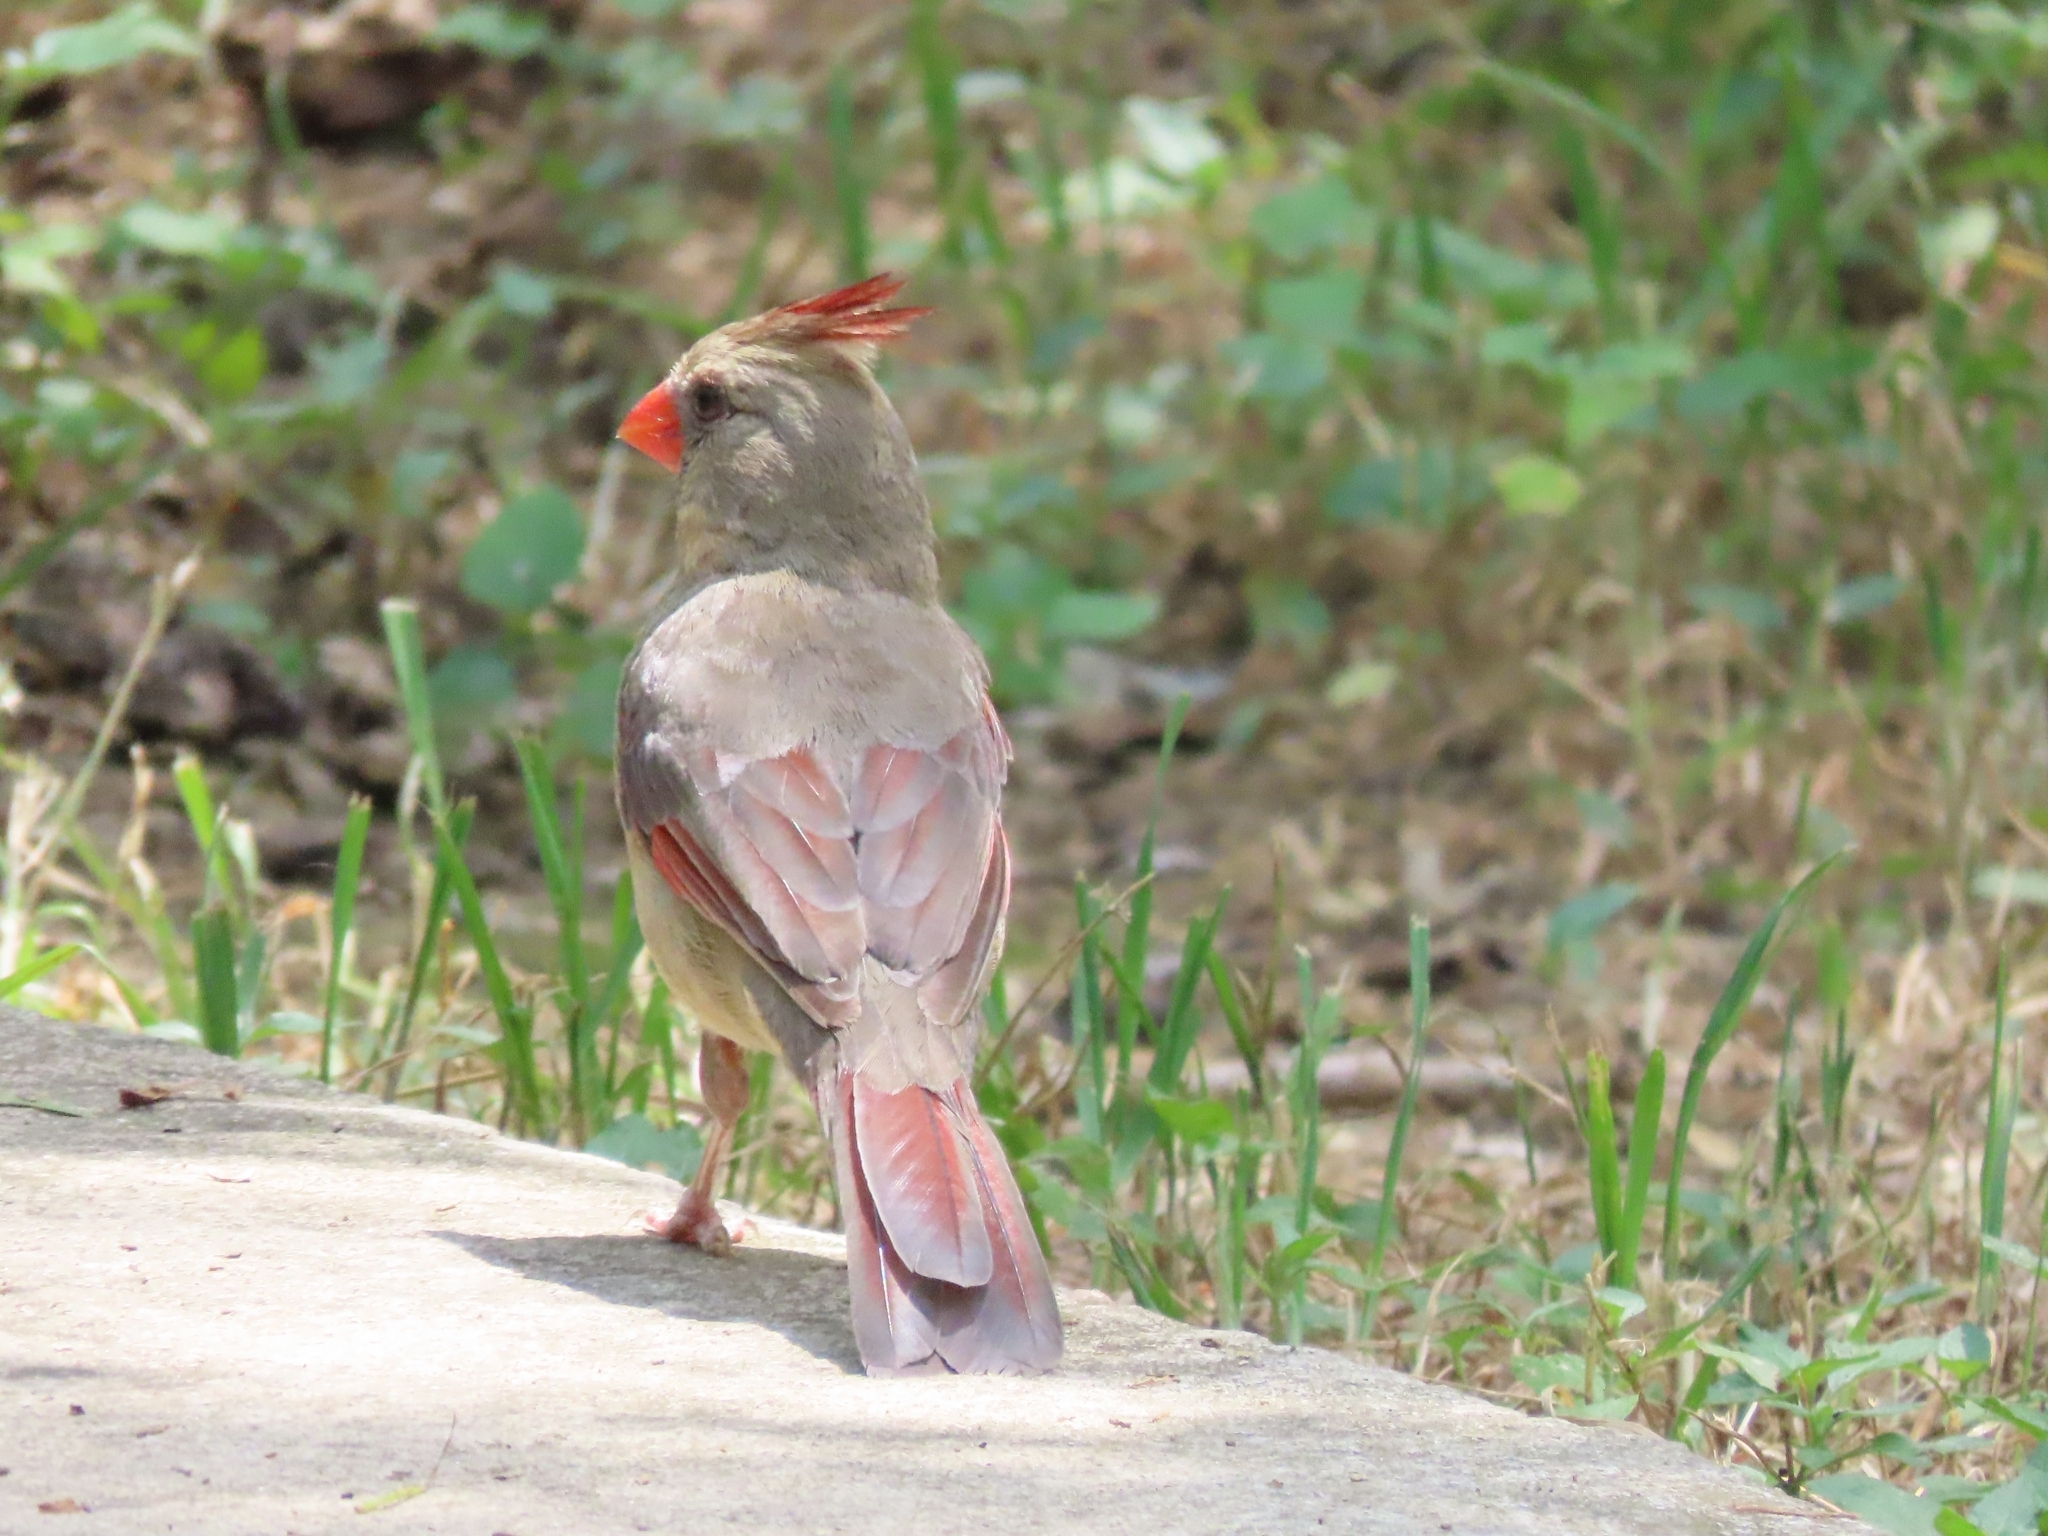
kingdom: Animalia
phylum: Chordata
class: Aves
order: Passeriformes
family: Cardinalidae
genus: Cardinalis
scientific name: Cardinalis cardinalis
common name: Northern cardinal
